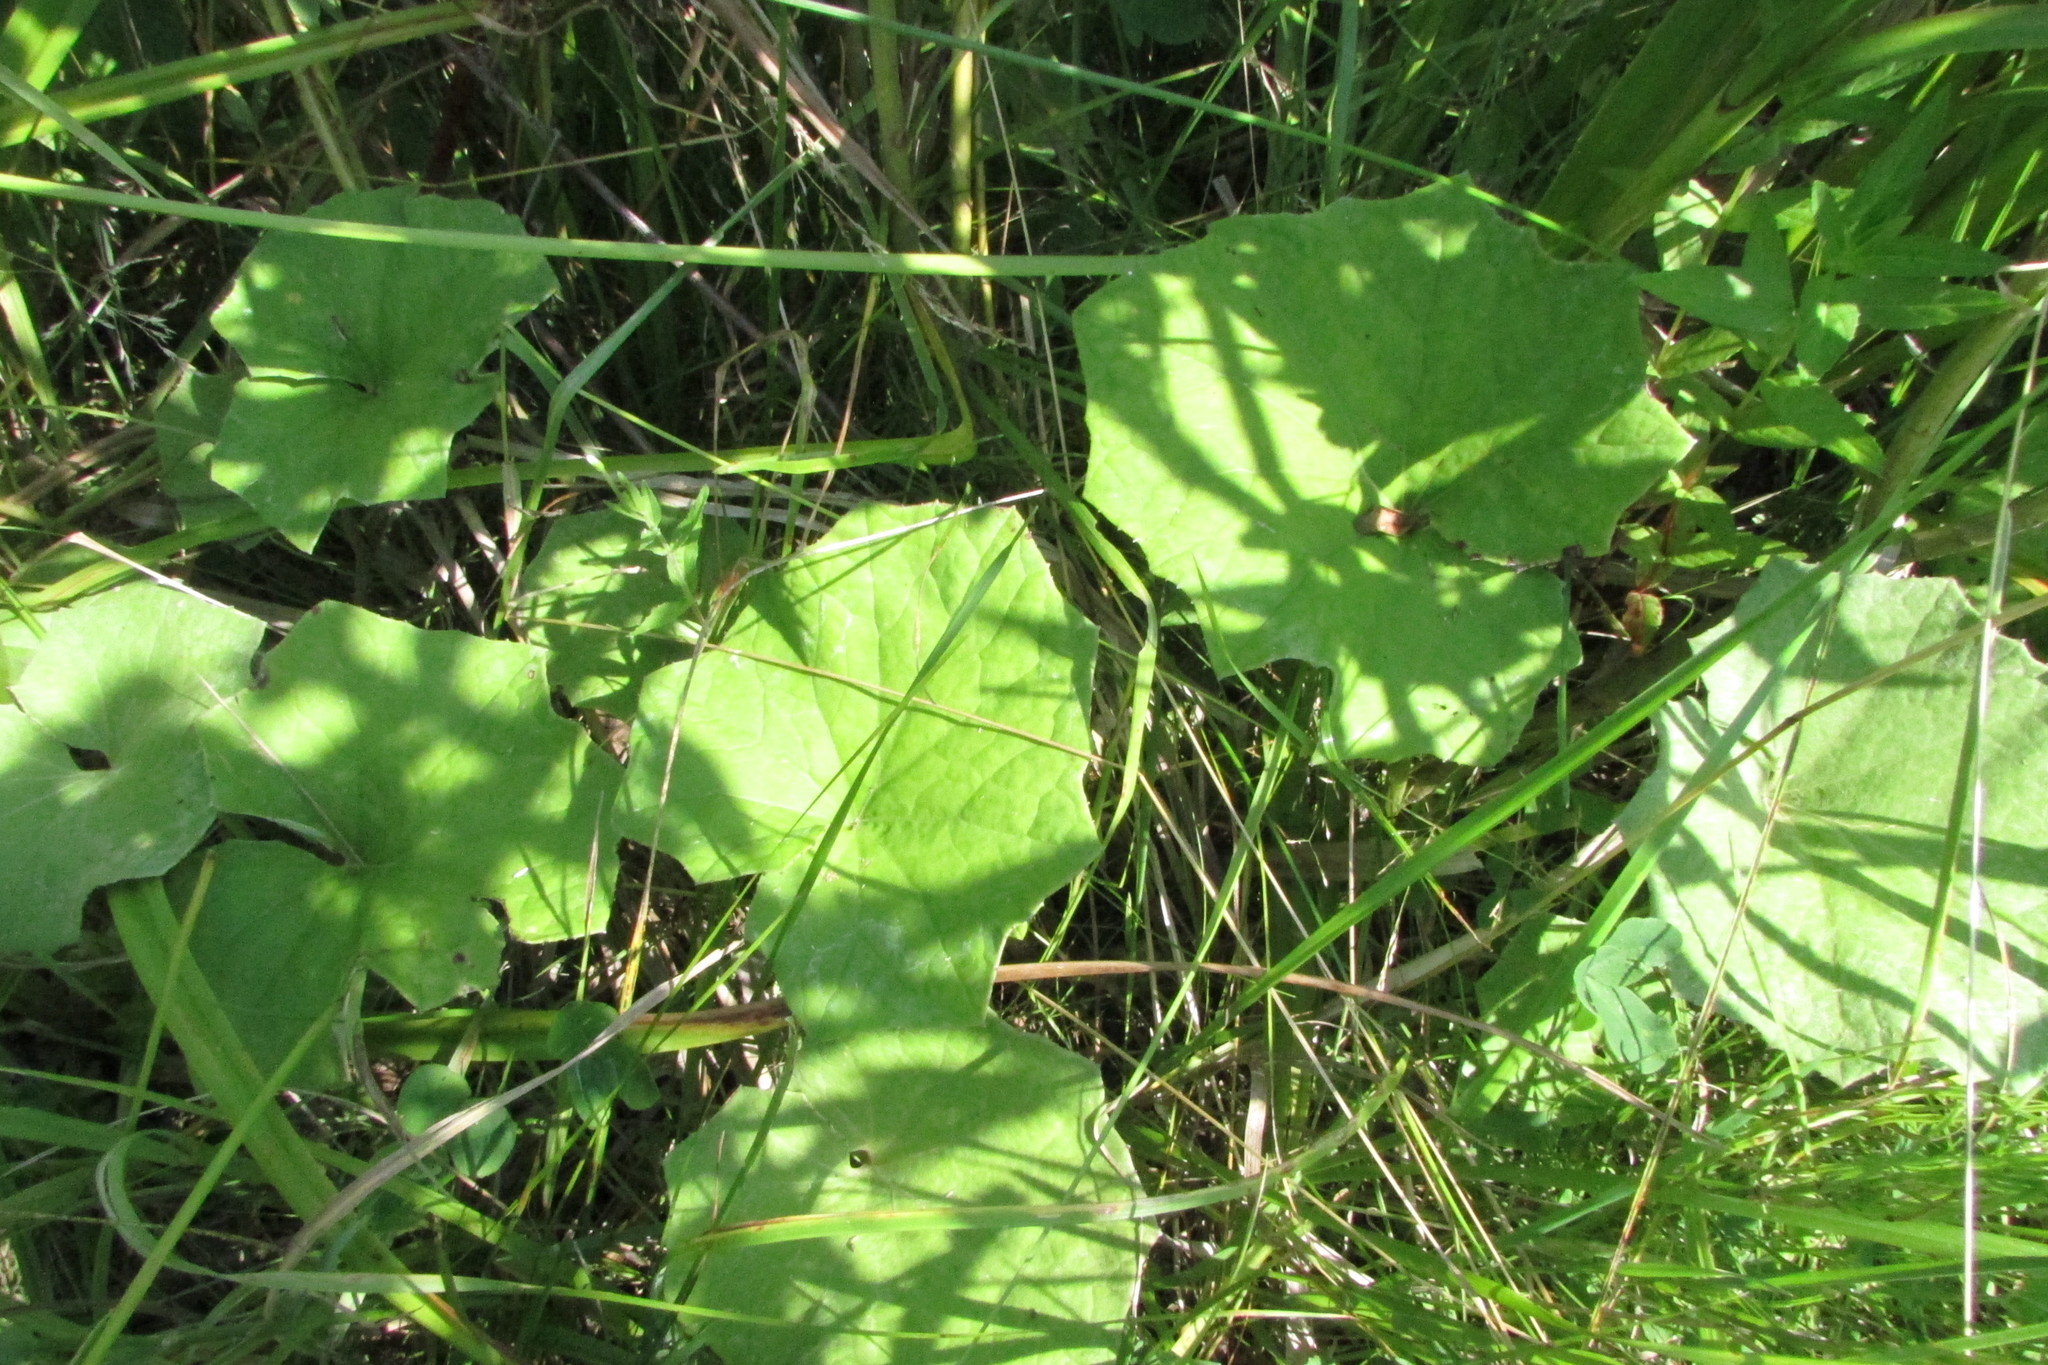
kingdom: Plantae
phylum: Tracheophyta
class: Magnoliopsida
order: Asterales
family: Asteraceae
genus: Tussilago
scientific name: Tussilago farfara
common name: Coltsfoot
